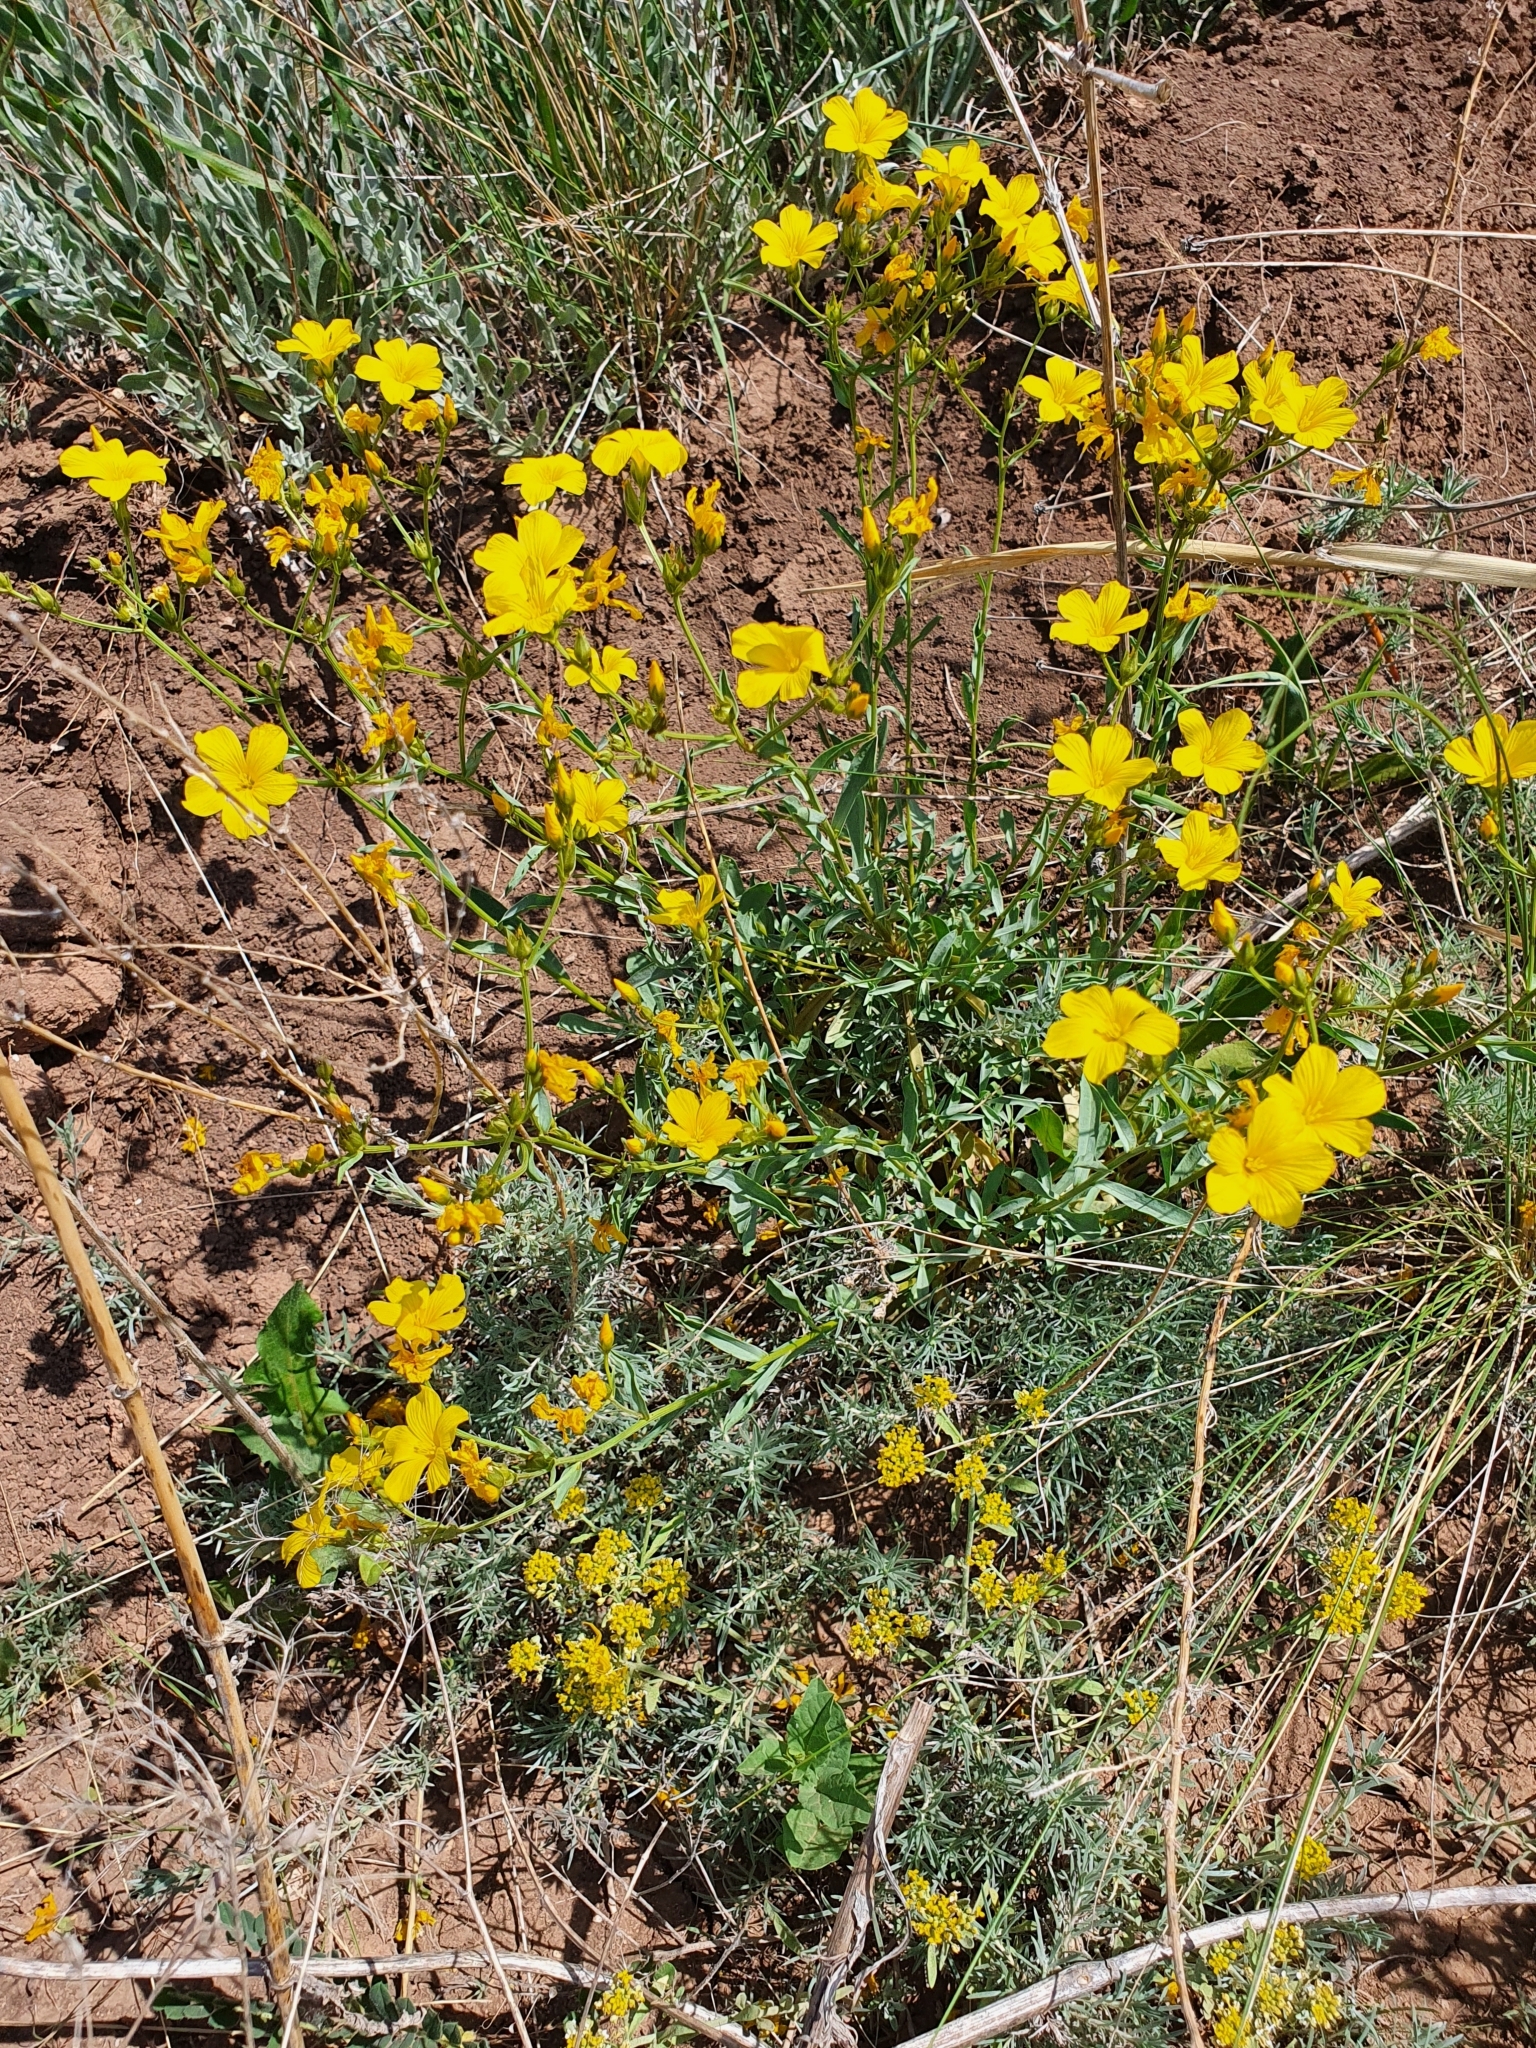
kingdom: Plantae
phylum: Tracheophyta
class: Magnoliopsida
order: Malpighiales
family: Linaceae
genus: Linum
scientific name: Linum ucranicum
